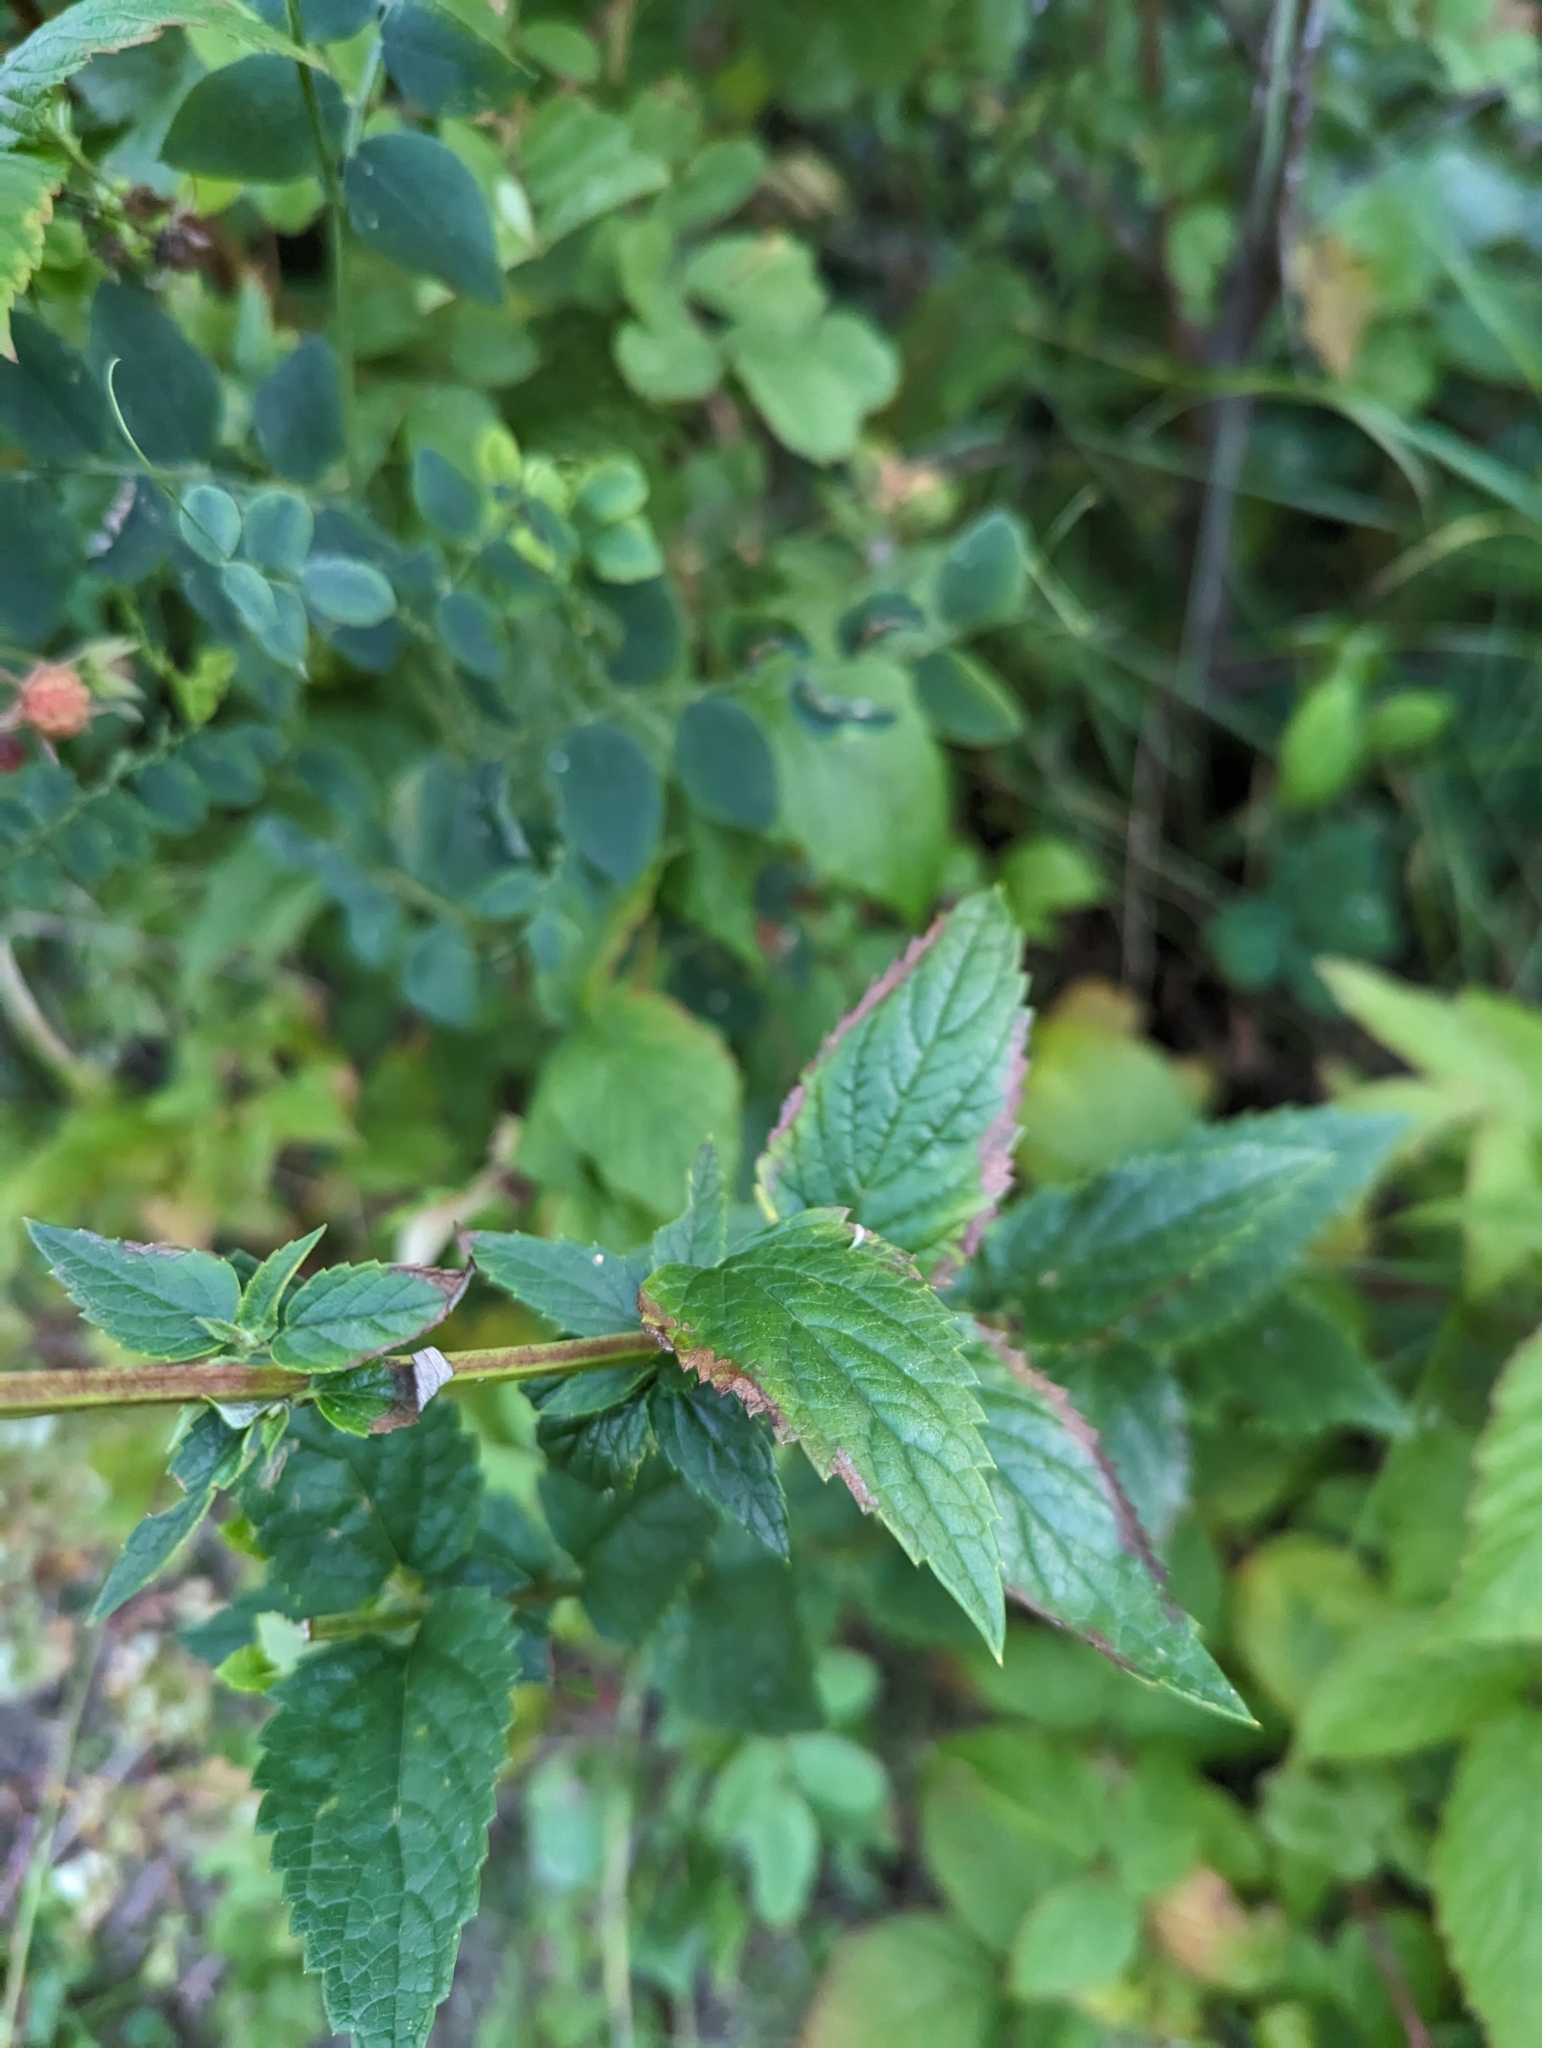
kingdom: Plantae
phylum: Tracheophyta
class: Magnoliopsida
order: Lamiales
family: Lamiaceae
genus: Agastache
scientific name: Agastache foeniculum
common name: Anise hyssop
